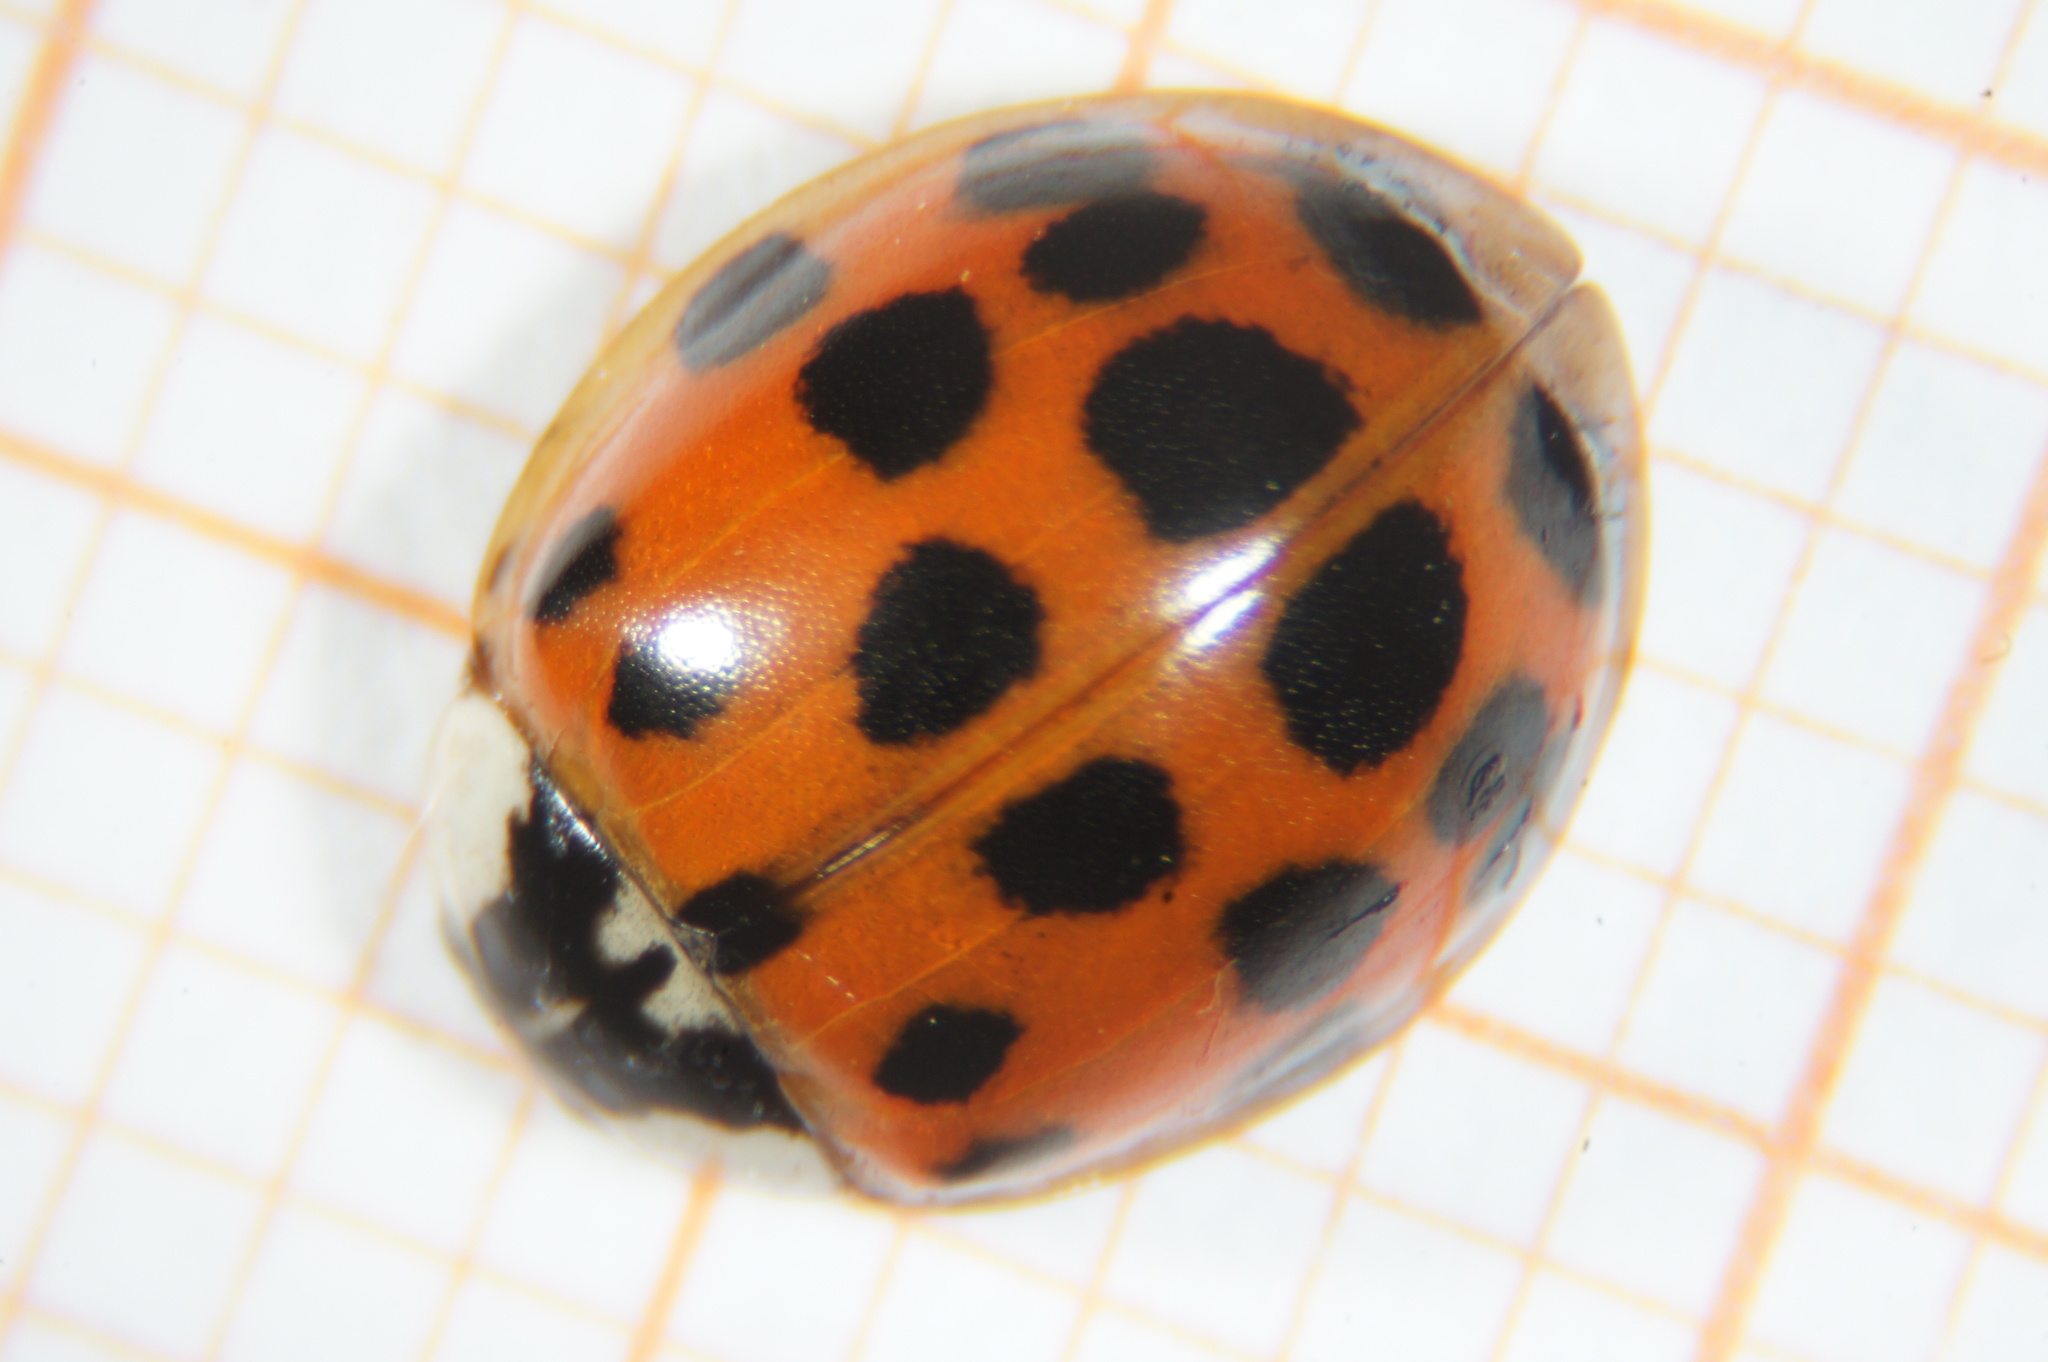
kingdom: Animalia
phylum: Arthropoda
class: Insecta
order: Coleoptera
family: Coccinellidae
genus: Harmonia
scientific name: Harmonia axyridis
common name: Harlequin ladybird
